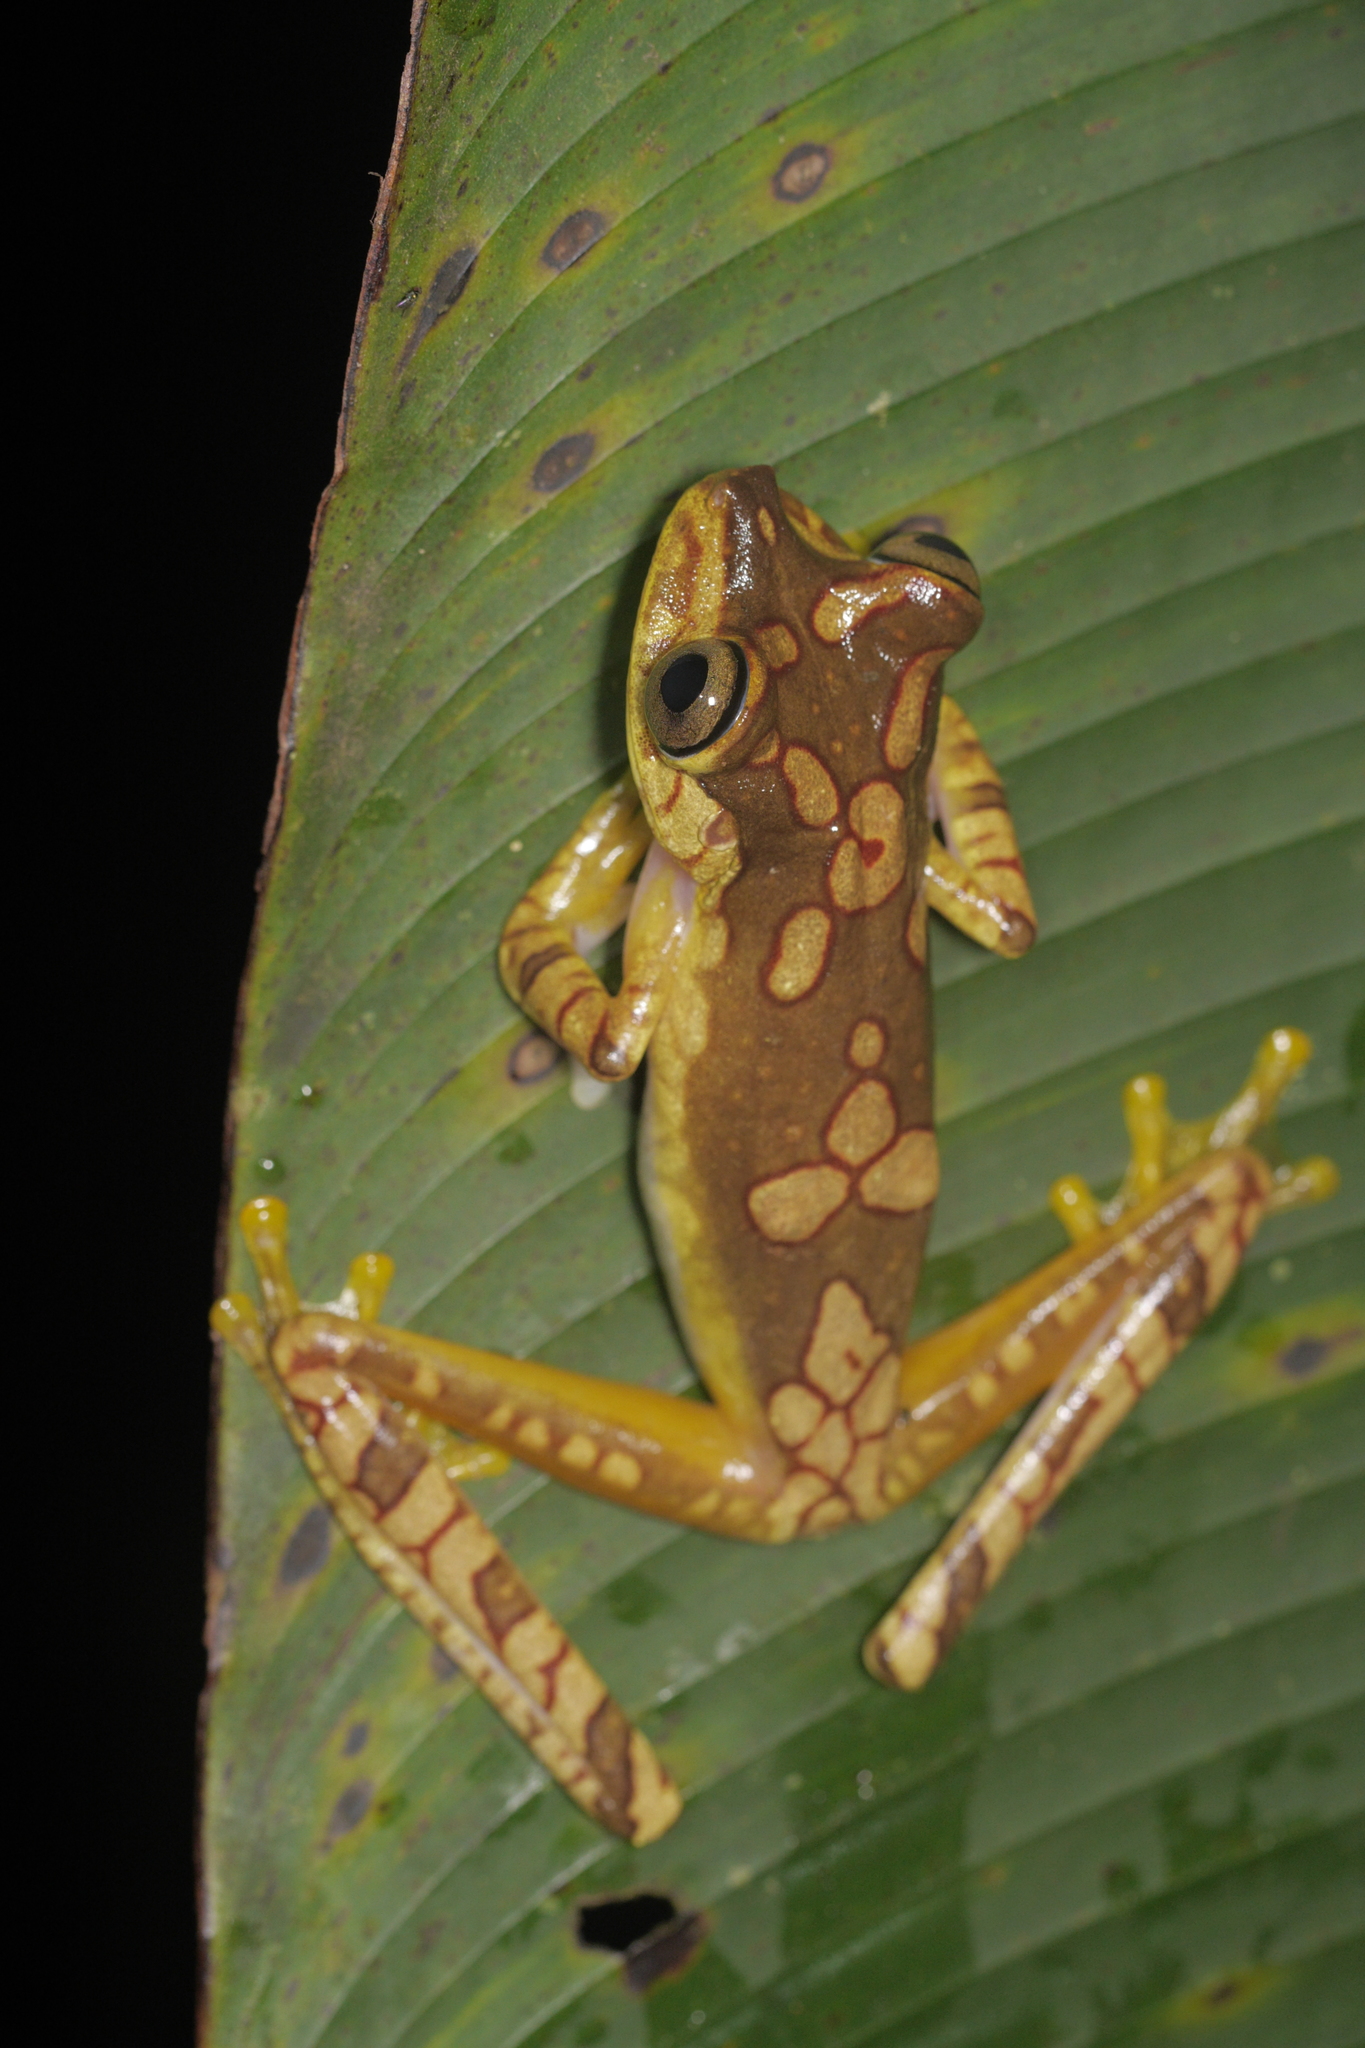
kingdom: Animalia
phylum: Chordata
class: Amphibia
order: Anura
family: Hylidae
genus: Boana
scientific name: Boana picturata
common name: Imbabura treefrog
